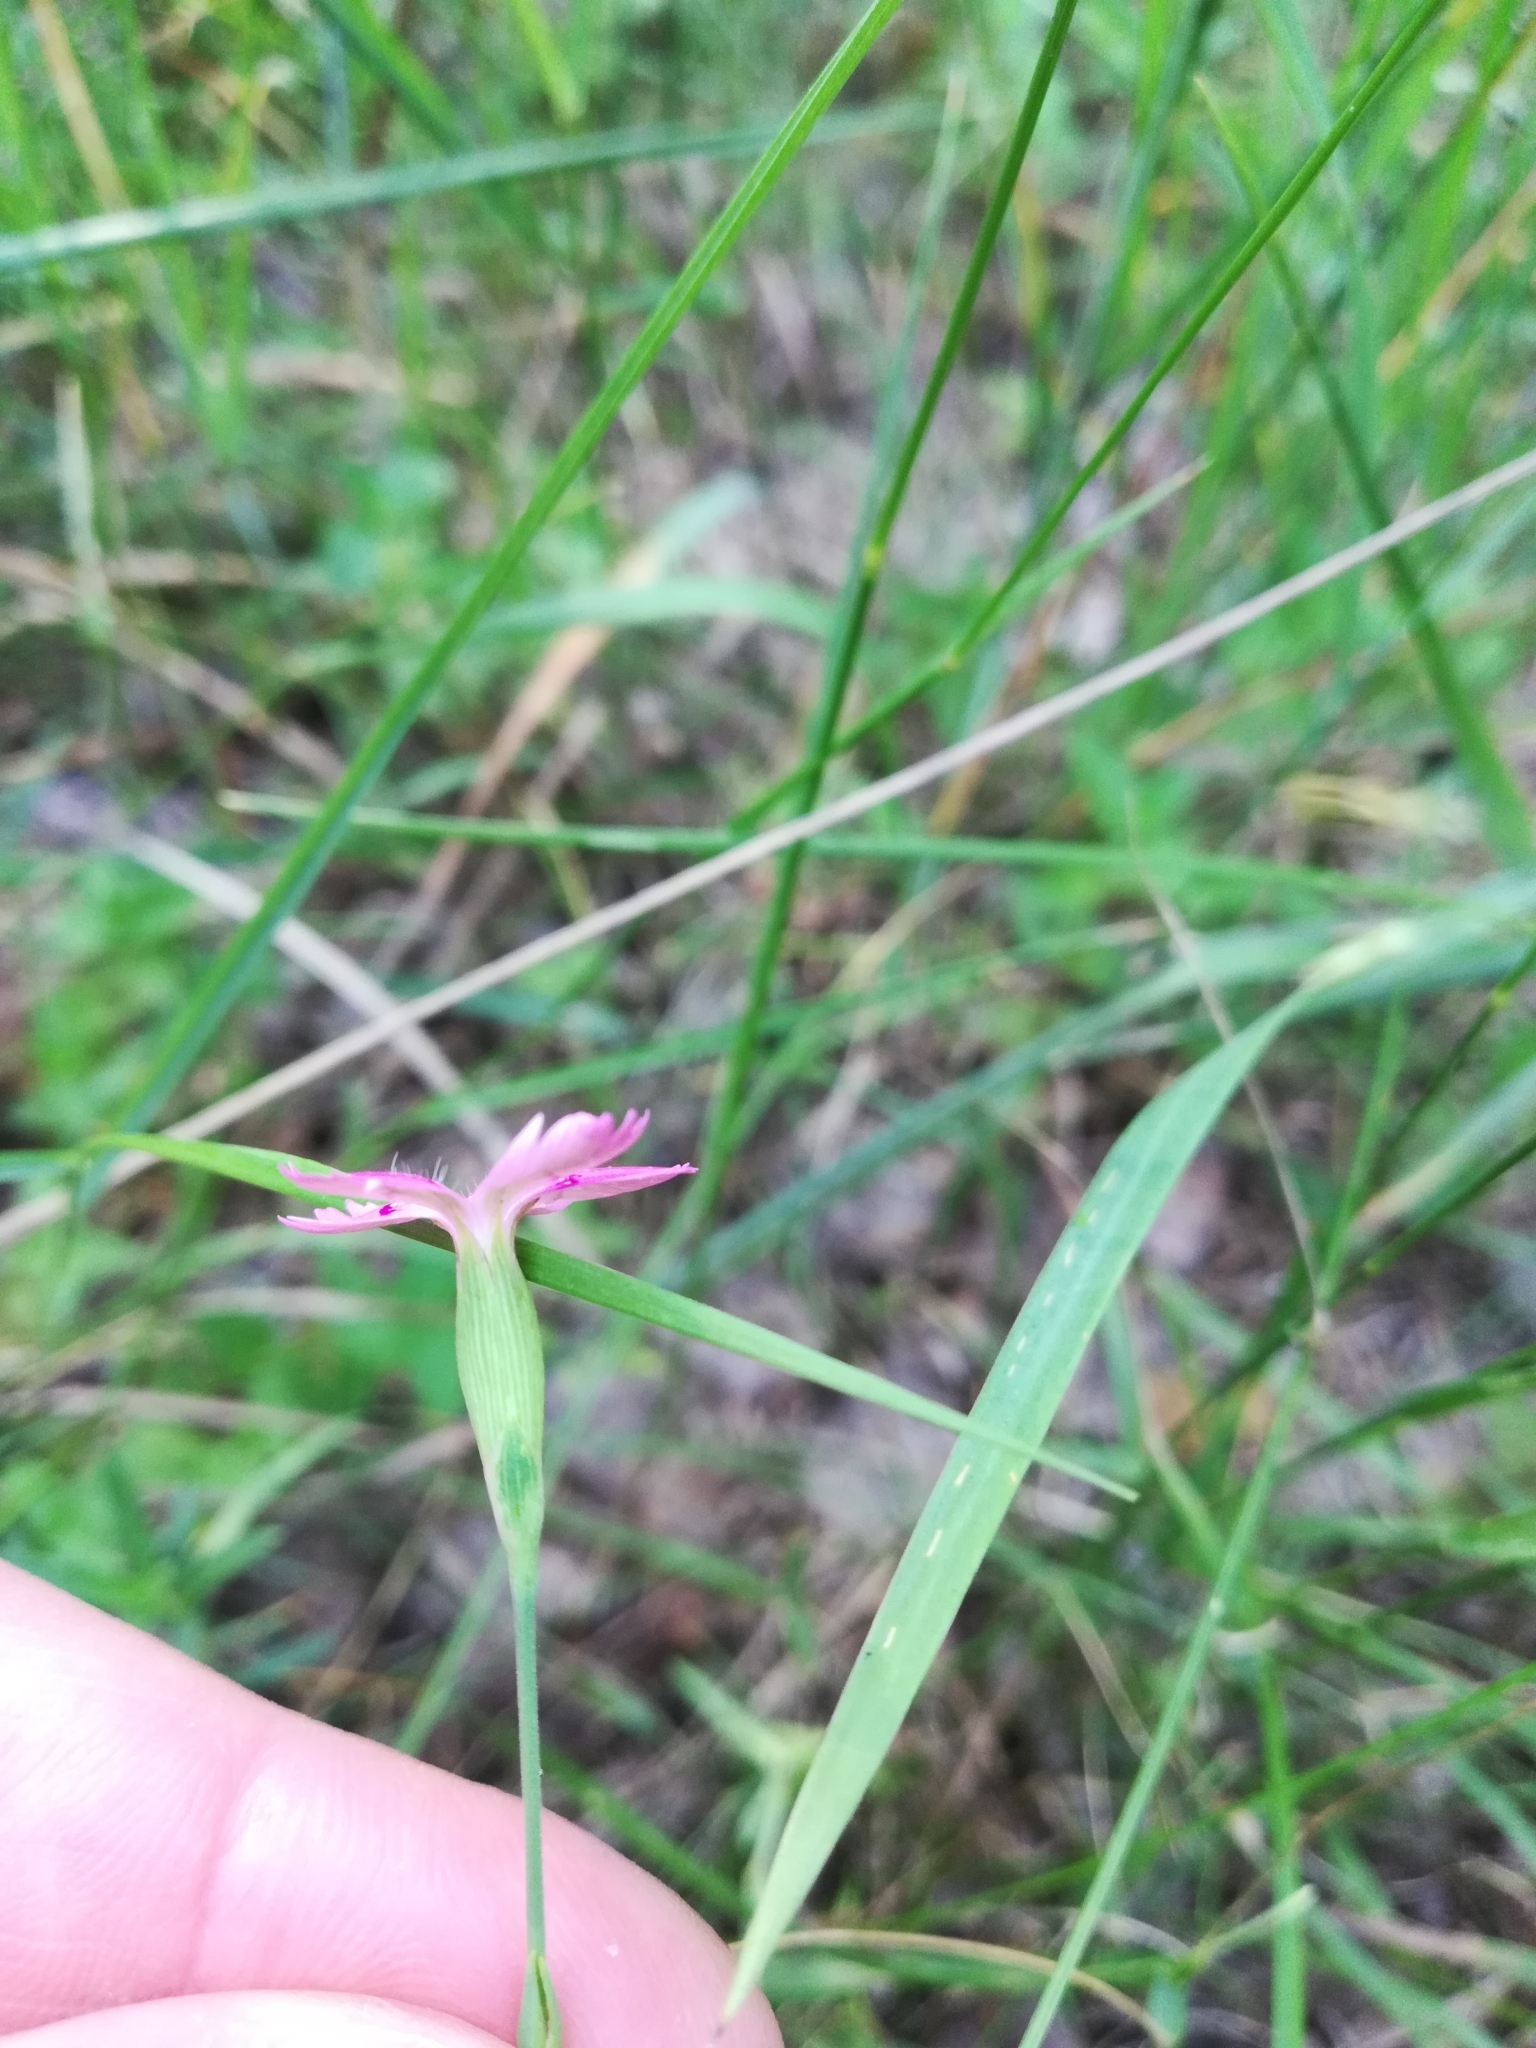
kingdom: Plantae
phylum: Tracheophyta
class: Magnoliopsida
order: Caryophyllales
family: Caryophyllaceae
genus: Dianthus
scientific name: Dianthus deltoides
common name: Maiden pink
